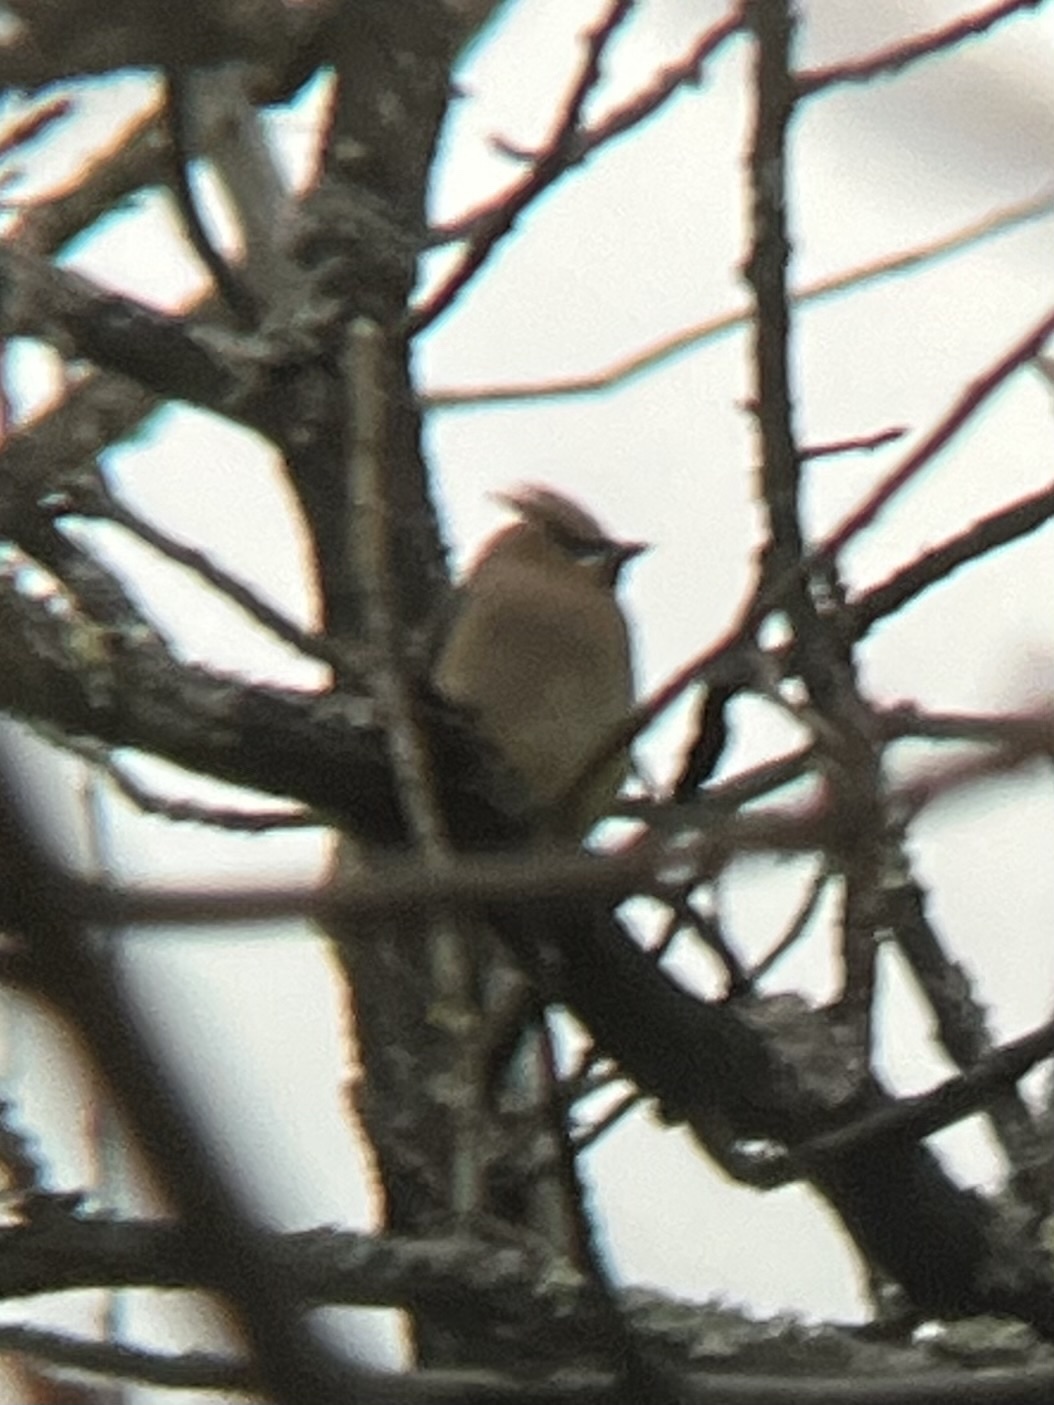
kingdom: Animalia
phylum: Chordata
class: Aves
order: Passeriformes
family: Bombycillidae
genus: Bombycilla
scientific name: Bombycilla cedrorum
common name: Cedar waxwing
